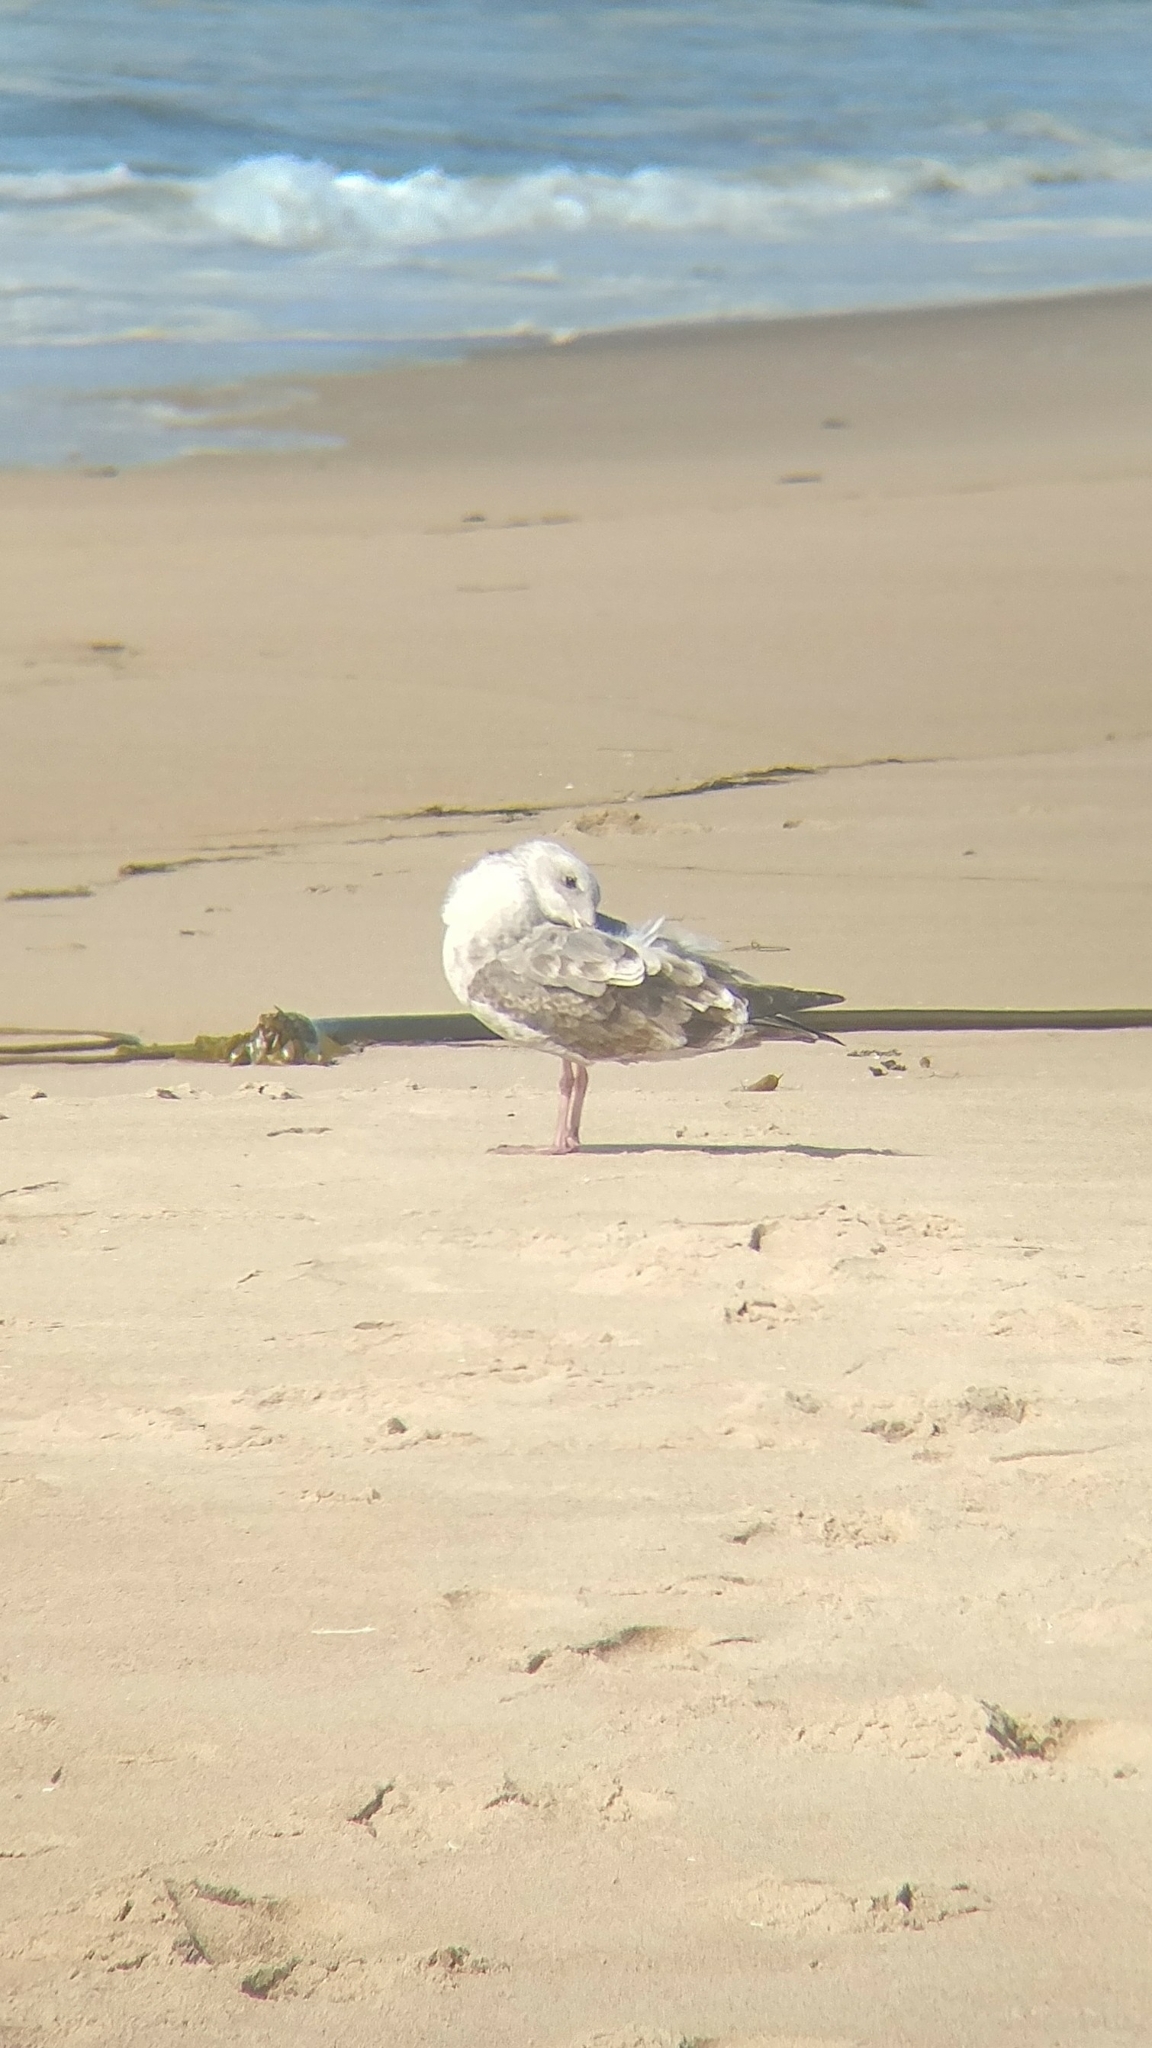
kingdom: Animalia
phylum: Chordata
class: Aves
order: Charadriiformes
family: Laridae
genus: Larus
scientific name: Larus occidentalis
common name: Western gull
